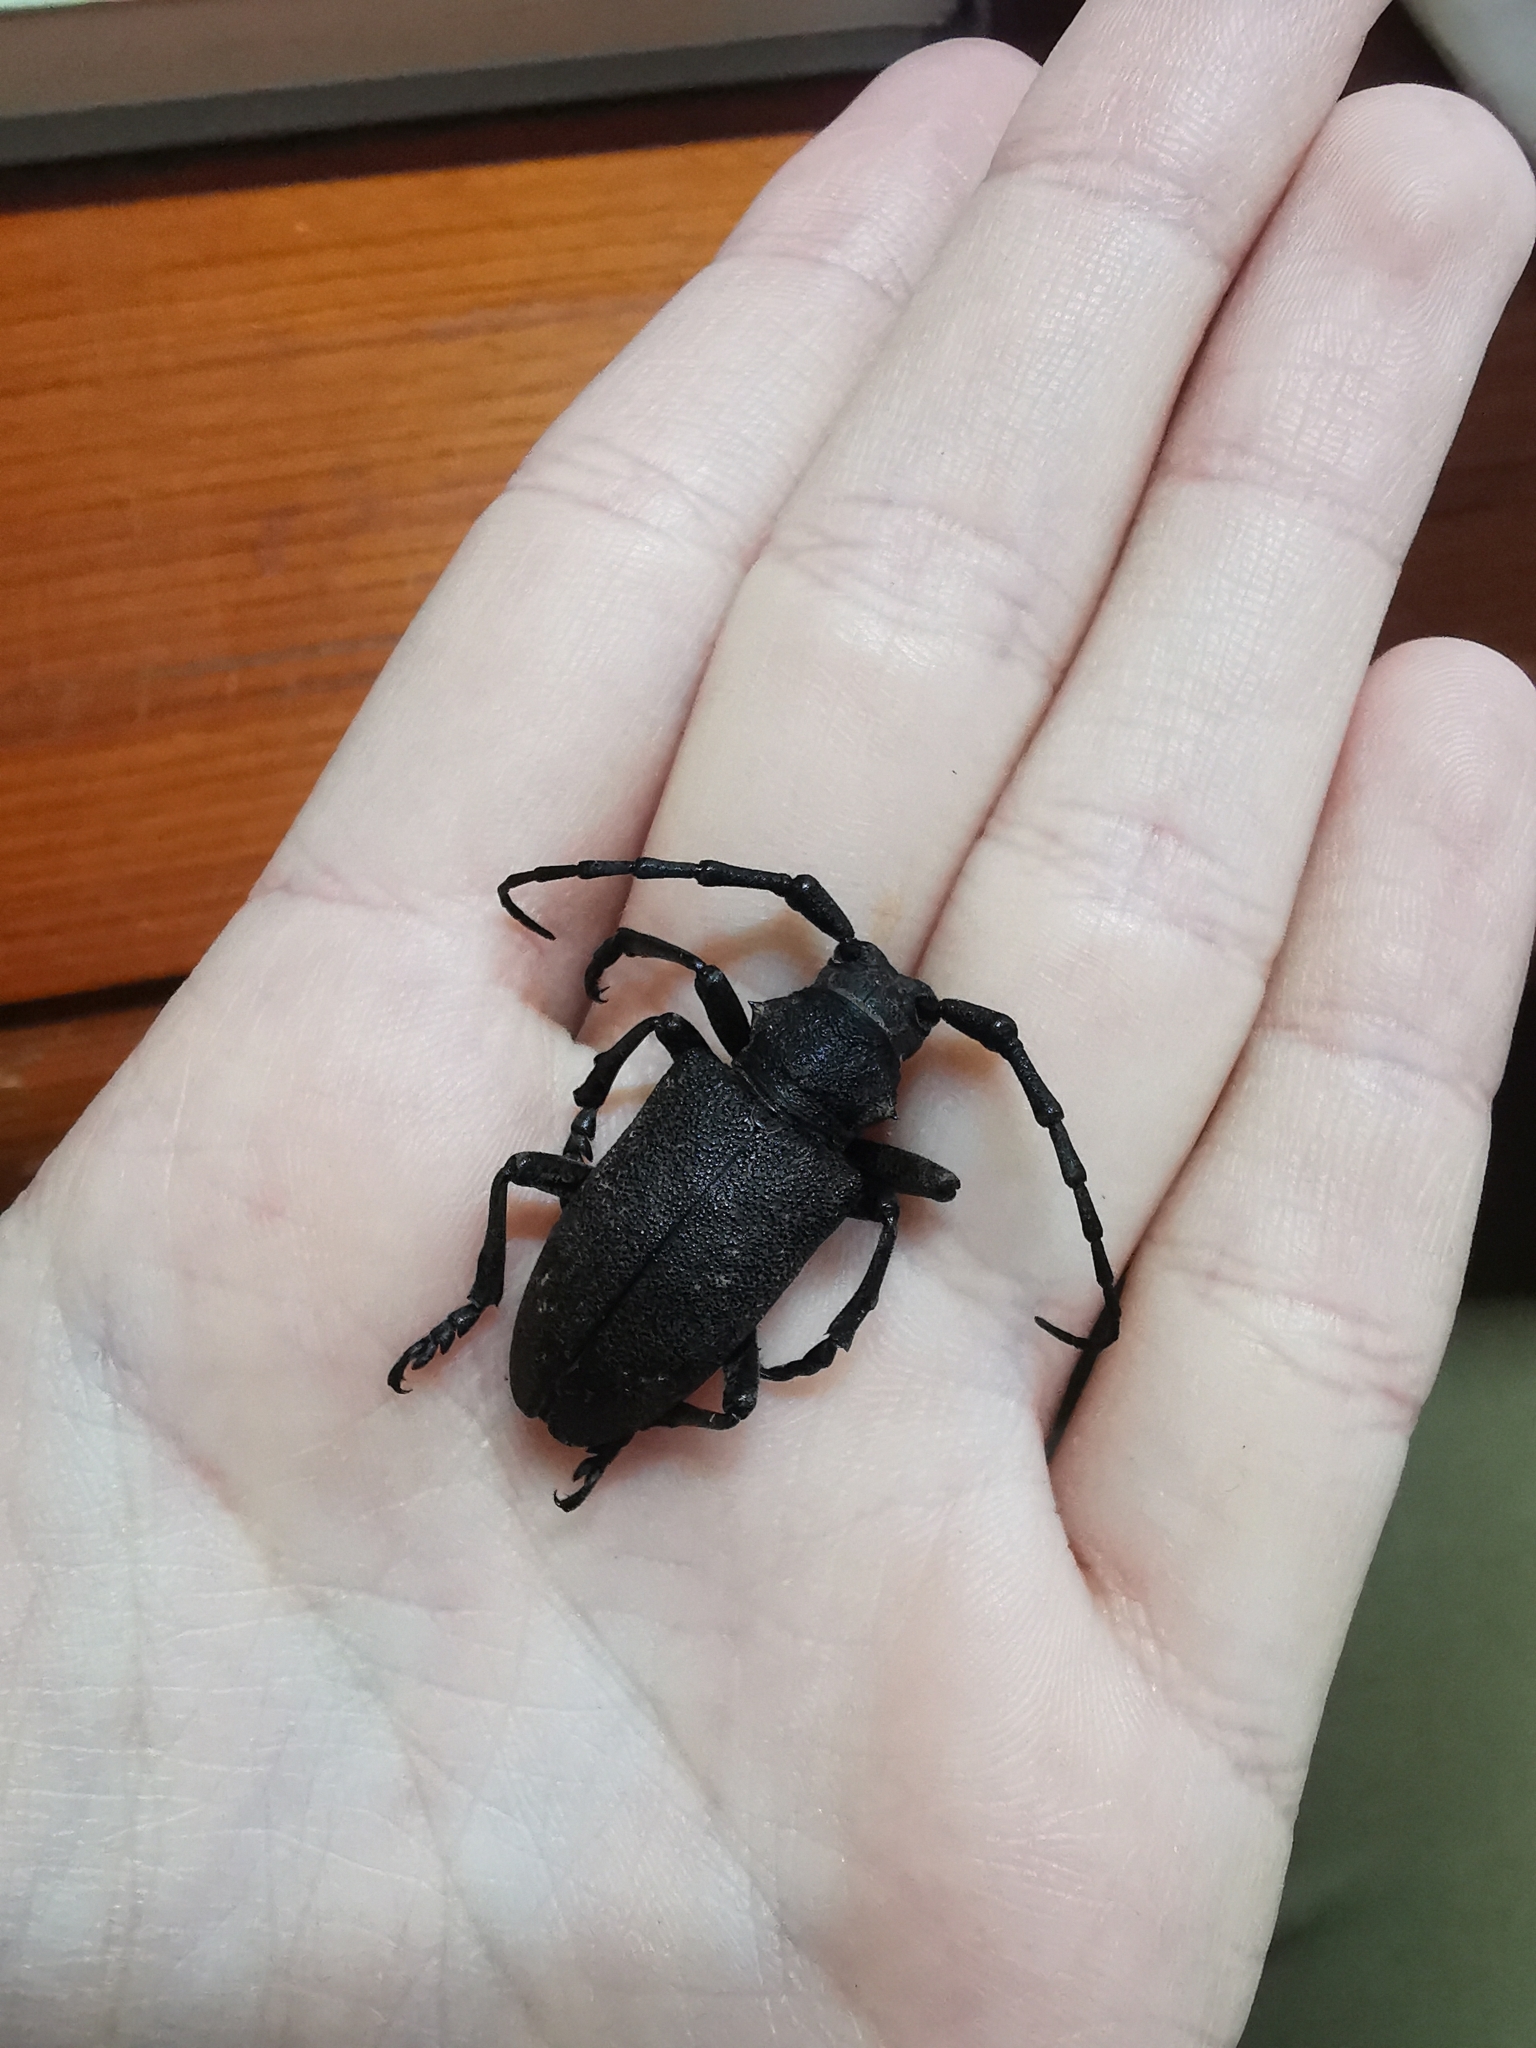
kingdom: Animalia
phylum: Arthropoda
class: Insecta
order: Coleoptera
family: Cerambycidae
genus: Lamia
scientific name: Lamia textor
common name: Weaver beetle
